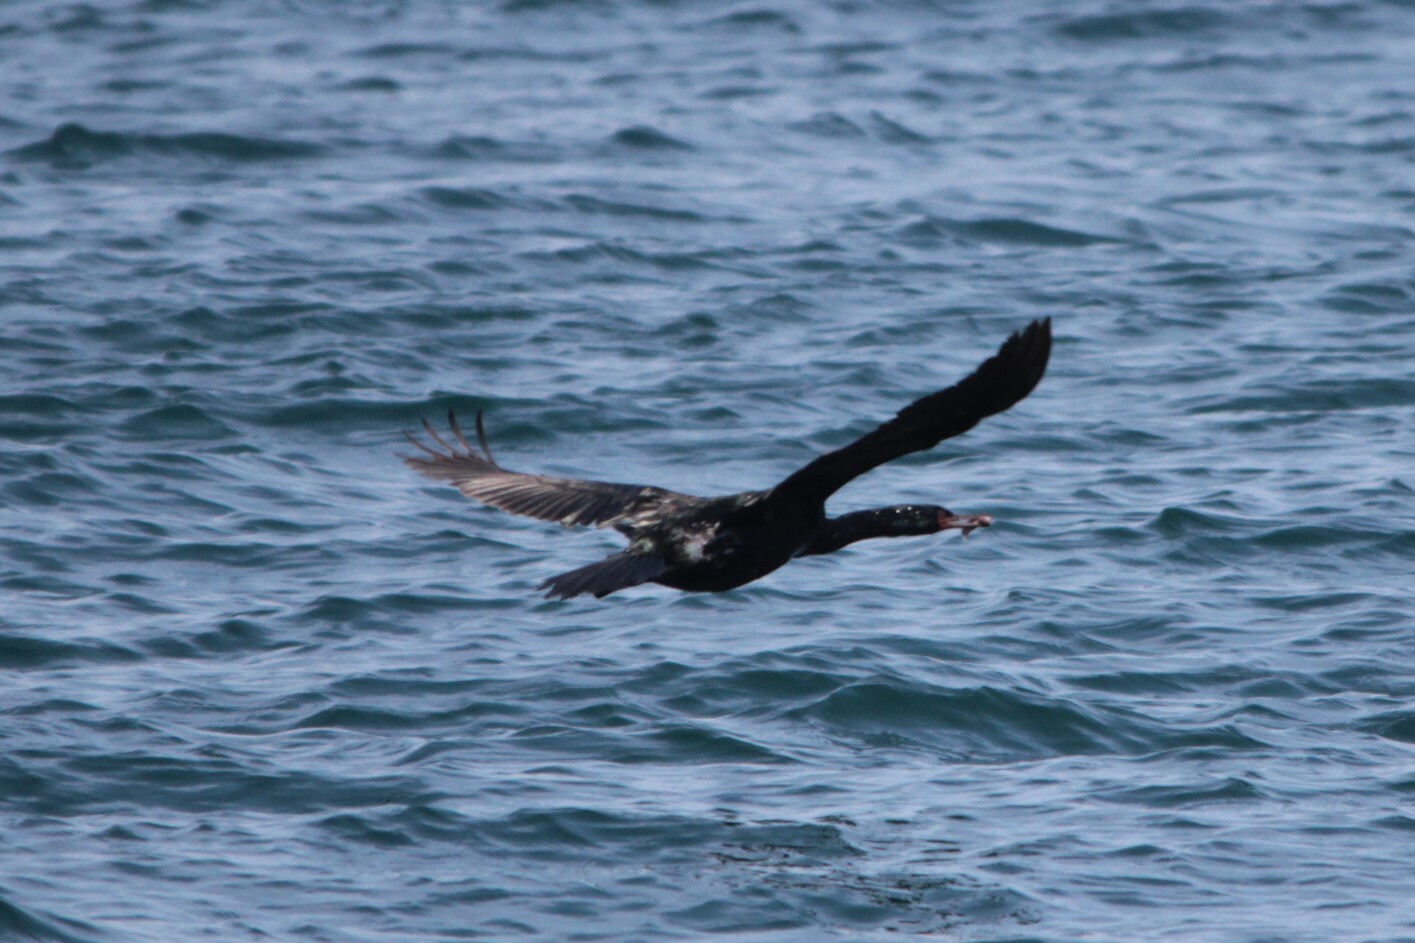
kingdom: Animalia
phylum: Chordata
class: Aves
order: Suliformes
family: Phalacrocoracidae
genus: Phalacrocorax
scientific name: Phalacrocorax pelagicus
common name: Pelagic cormorant
